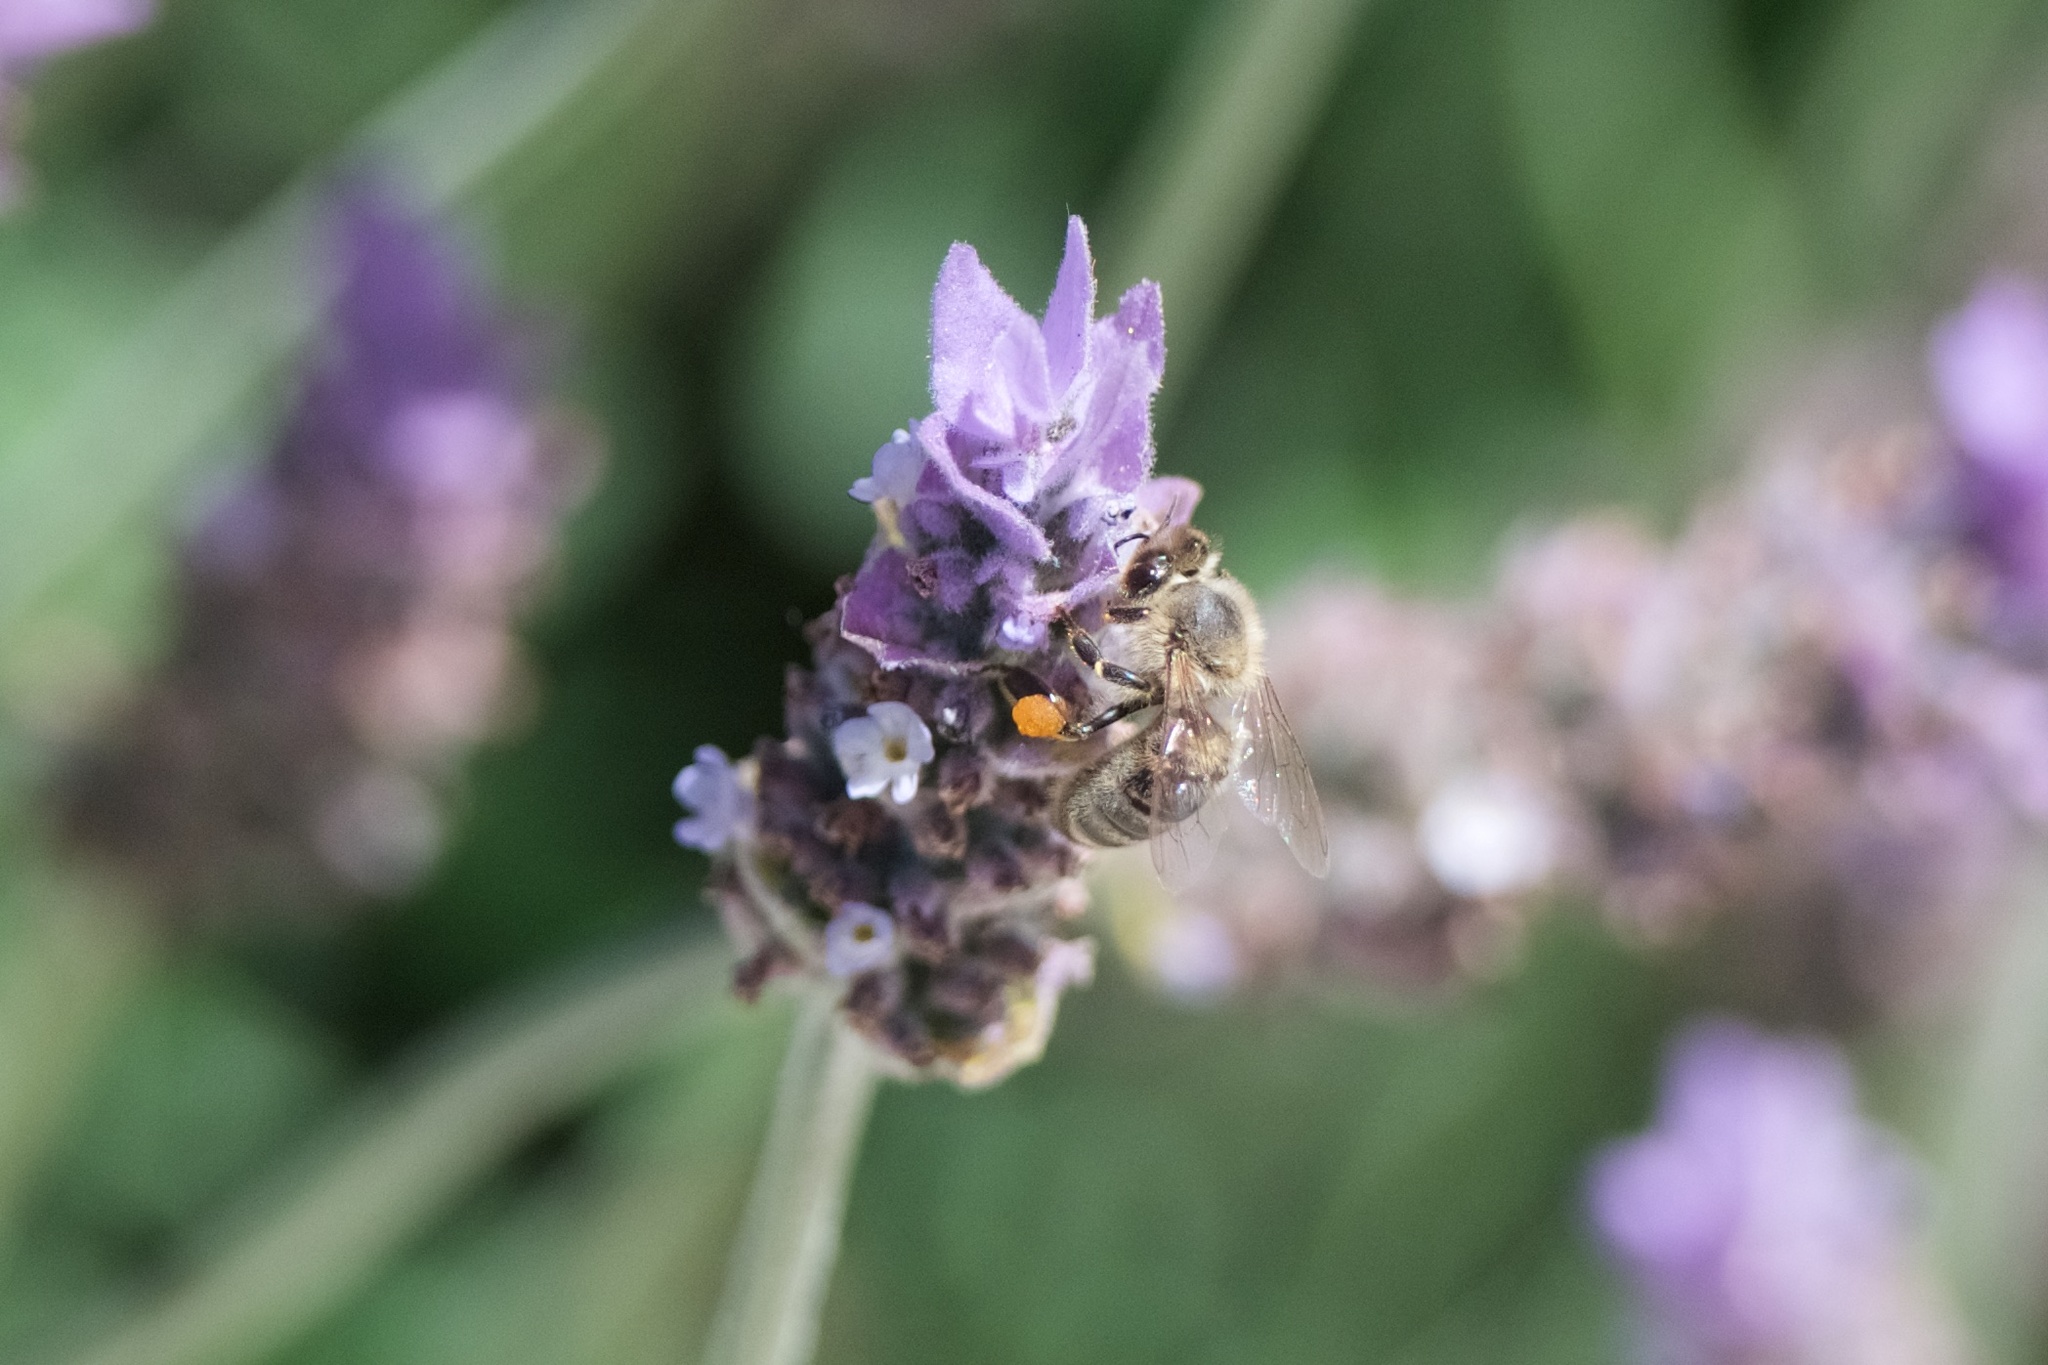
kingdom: Animalia
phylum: Arthropoda
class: Insecta
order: Hymenoptera
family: Apidae
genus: Apis
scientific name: Apis mellifera
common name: Honey bee
